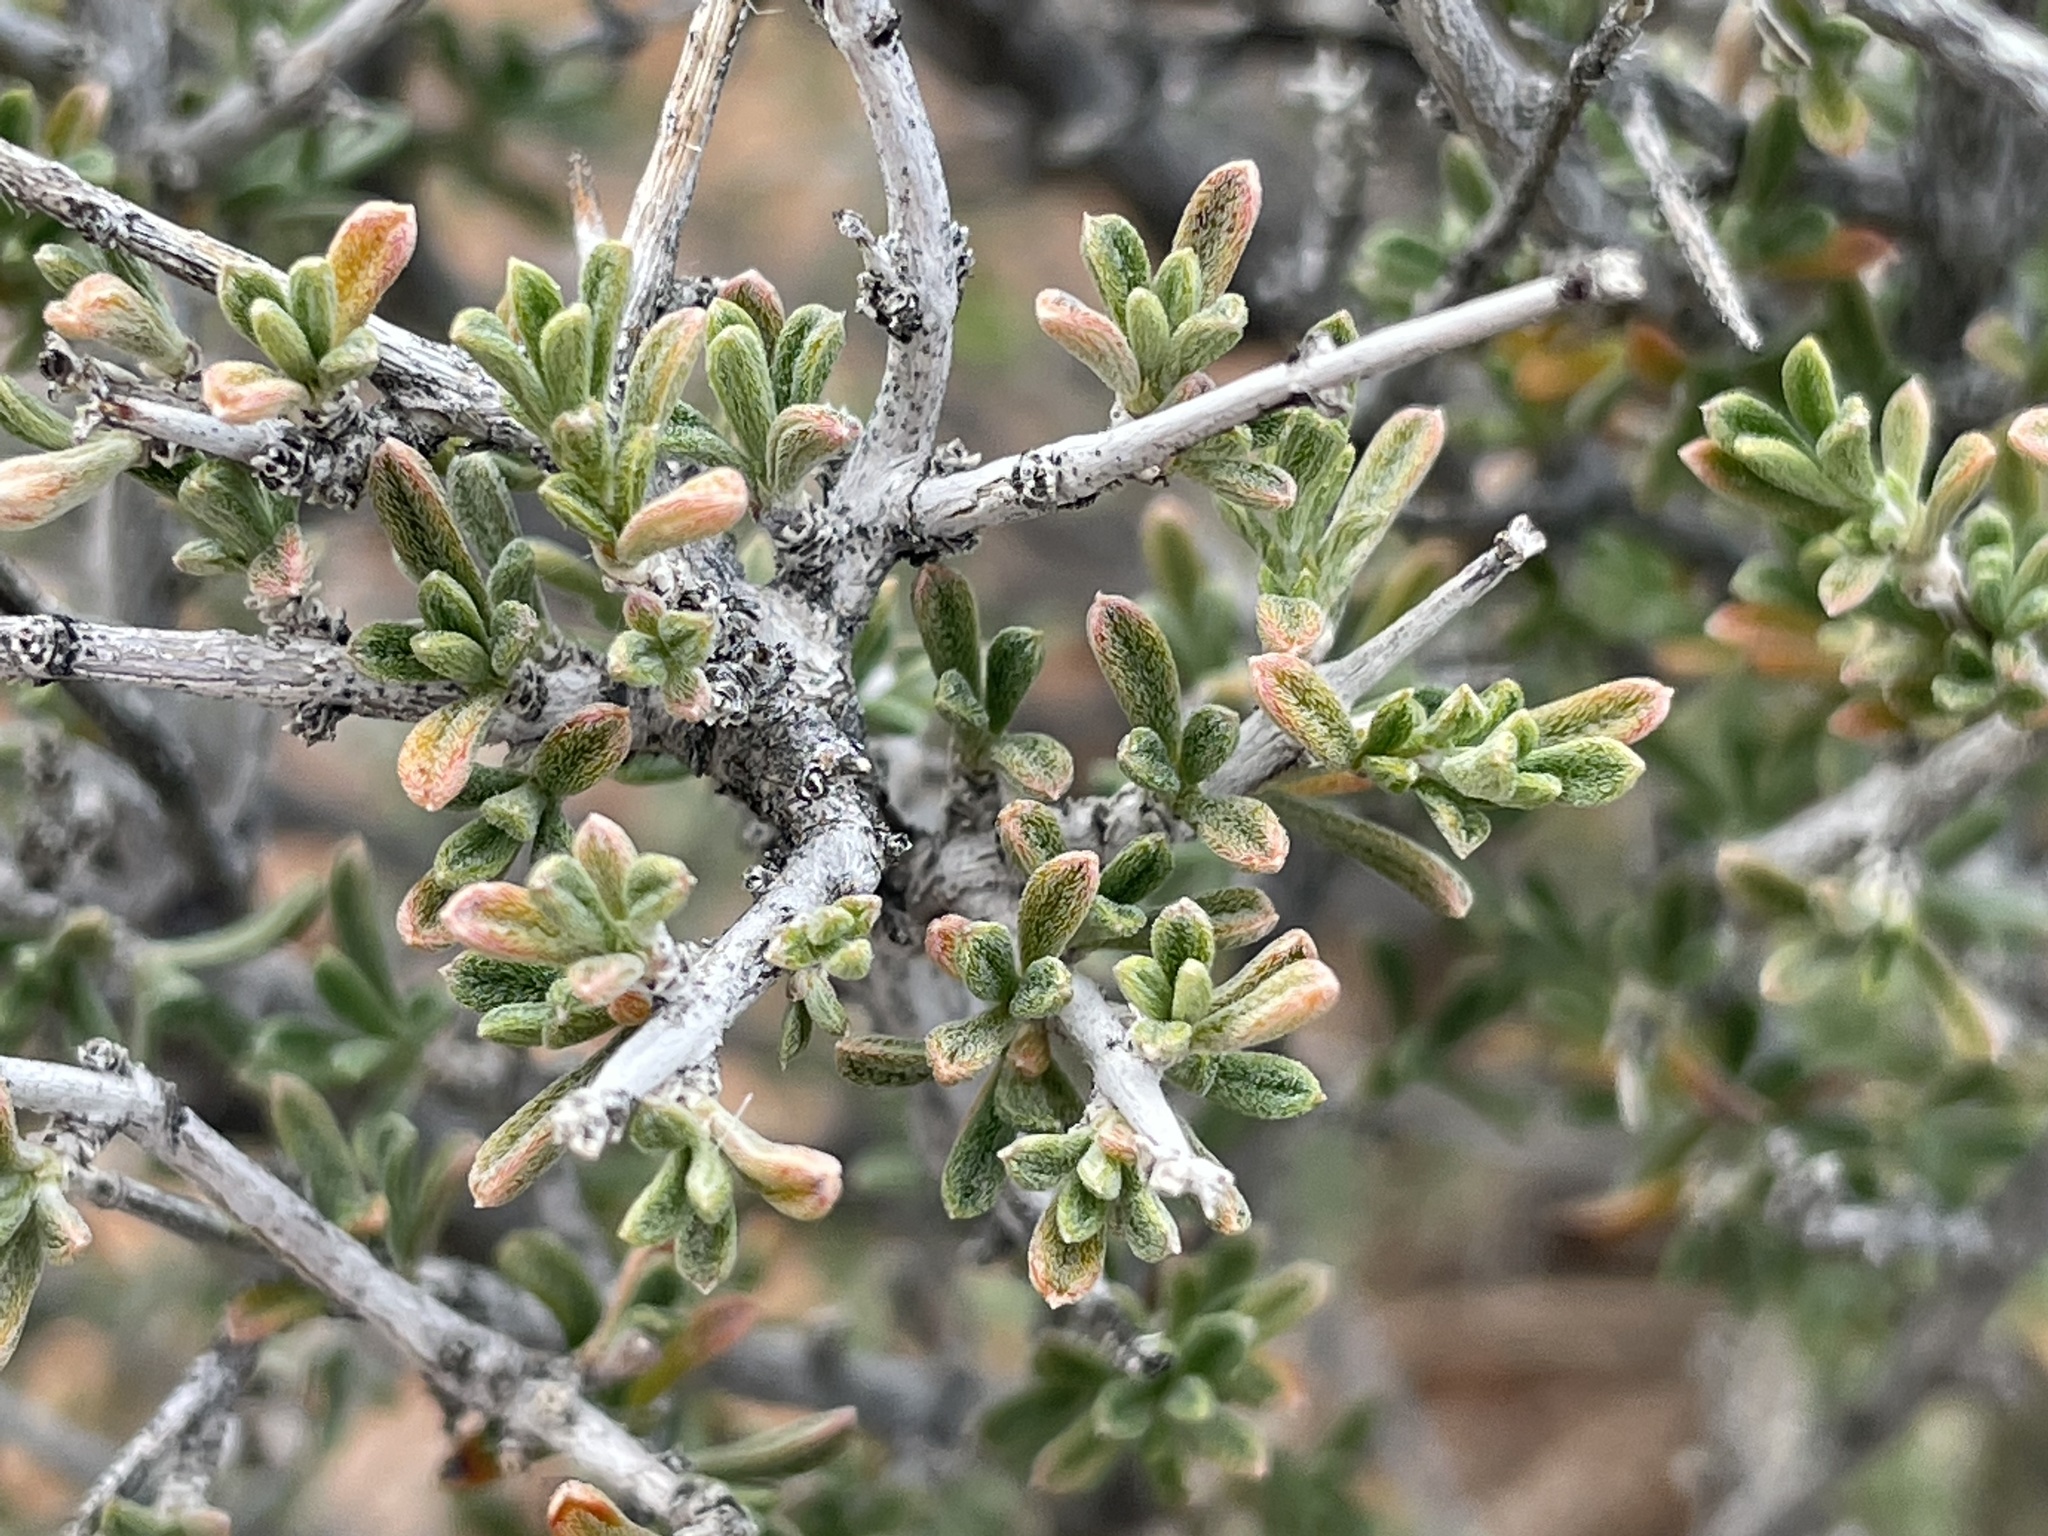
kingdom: Plantae
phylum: Tracheophyta
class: Magnoliopsida
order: Rosales
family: Rosaceae
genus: Coleogyne
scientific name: Coleogyne ramosissima
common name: Blackbrush
